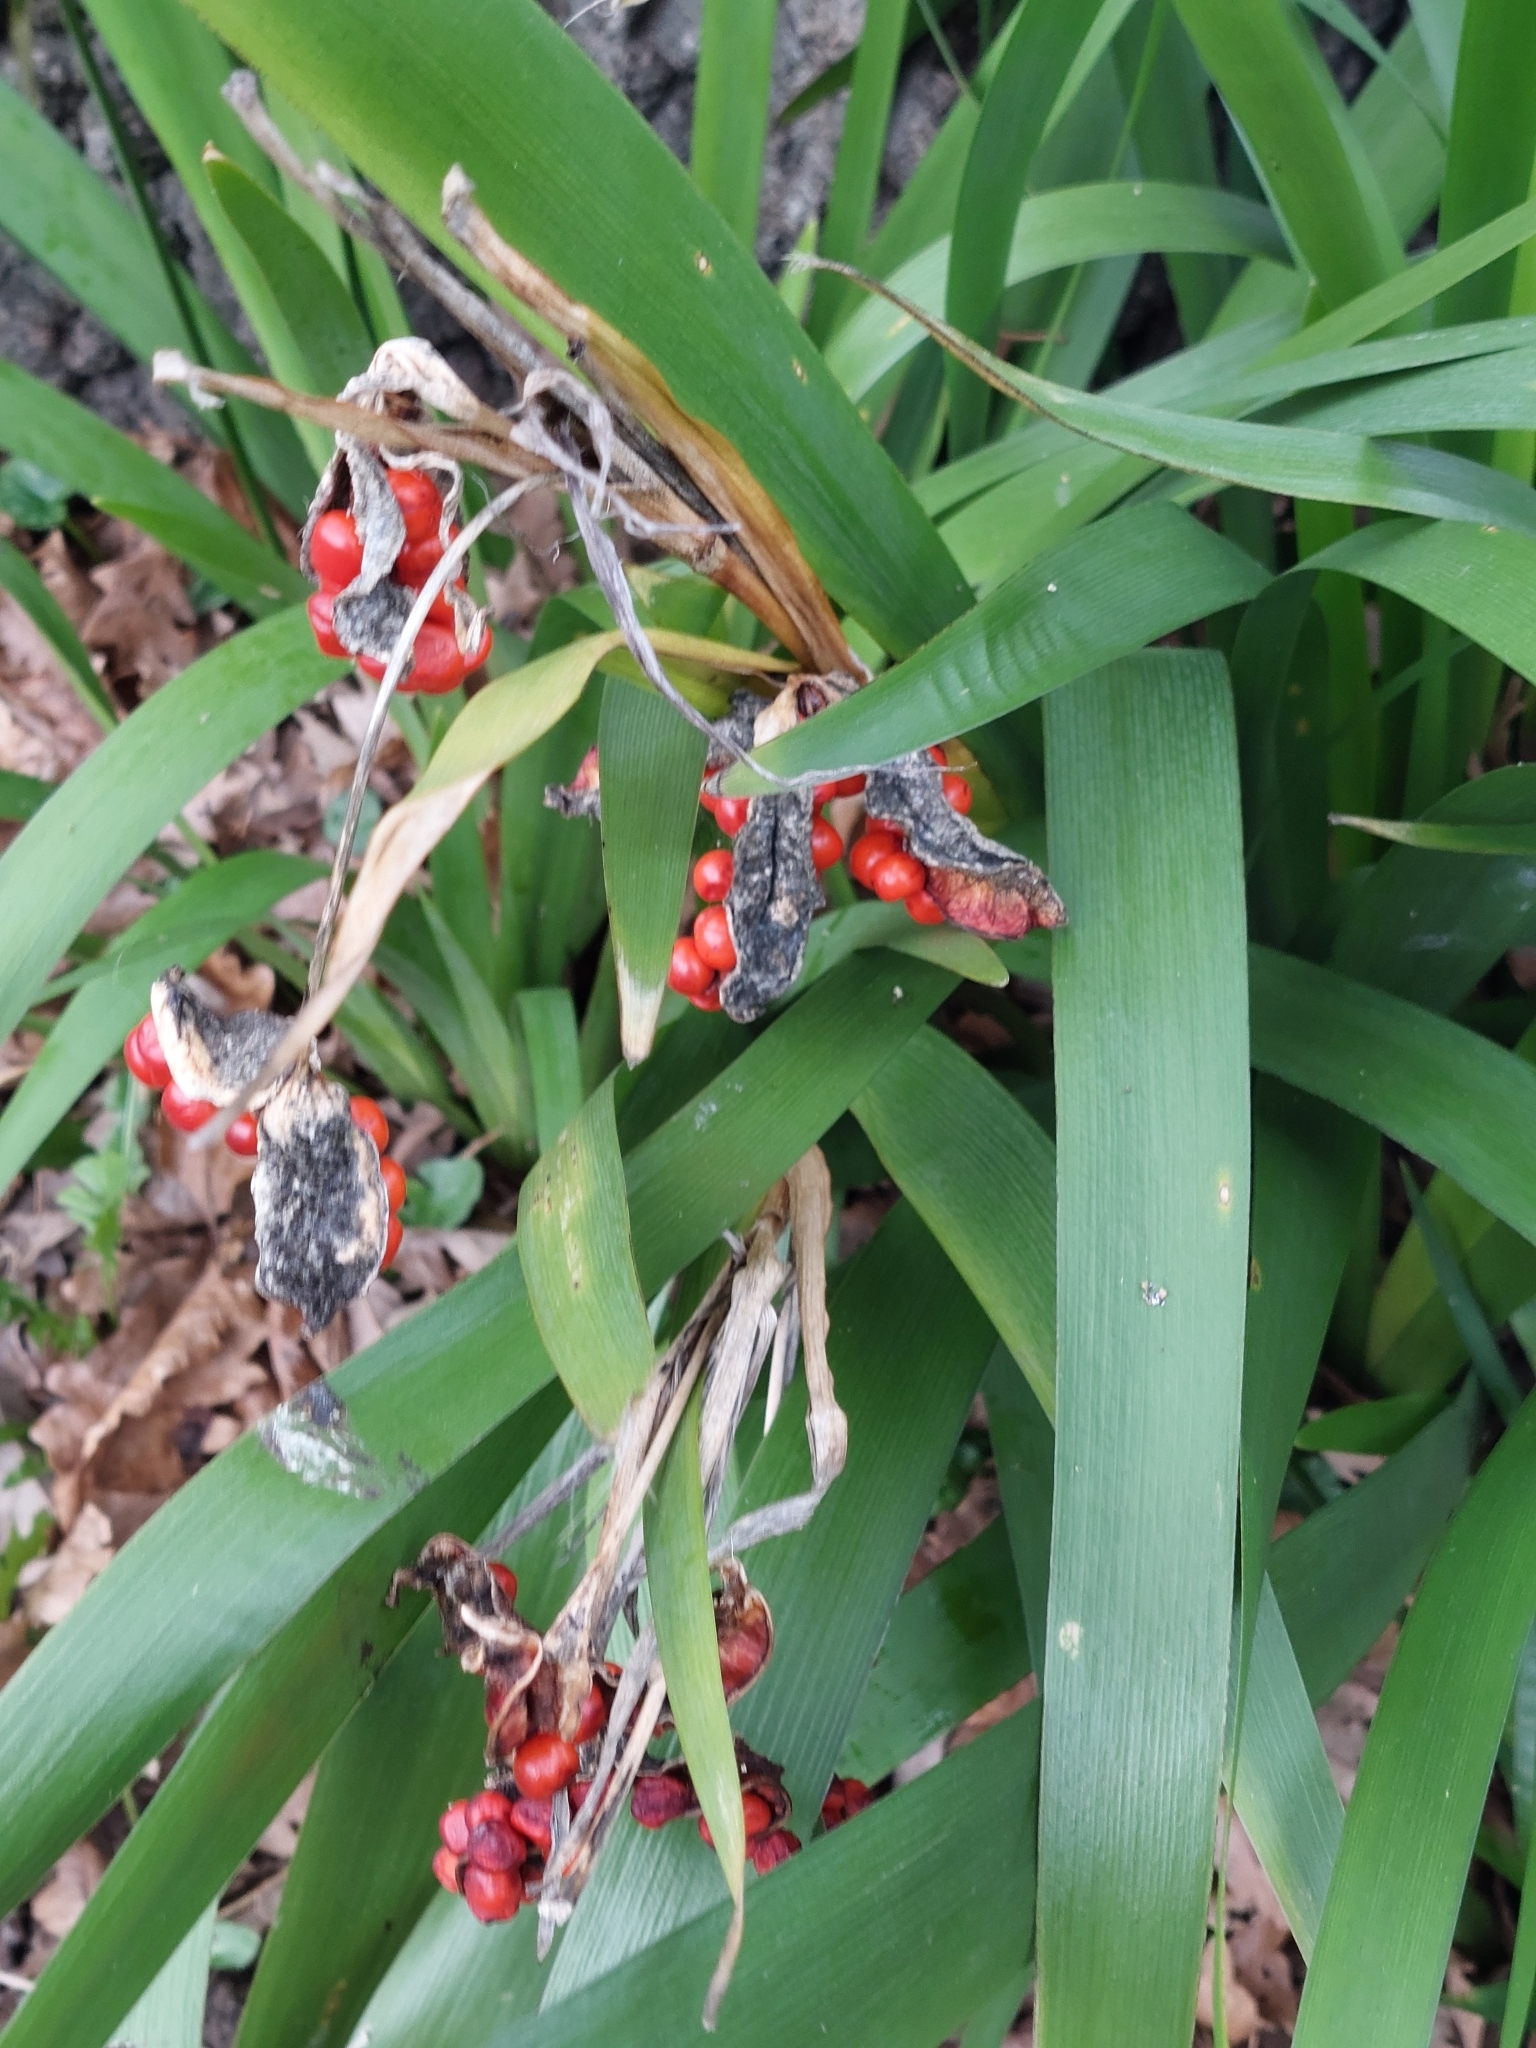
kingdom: Plantae
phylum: Tracheophyta
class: Liliopsida
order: Asparagales
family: Iridaceae
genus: Iris
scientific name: Iris foetidissima
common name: Stinking iris
